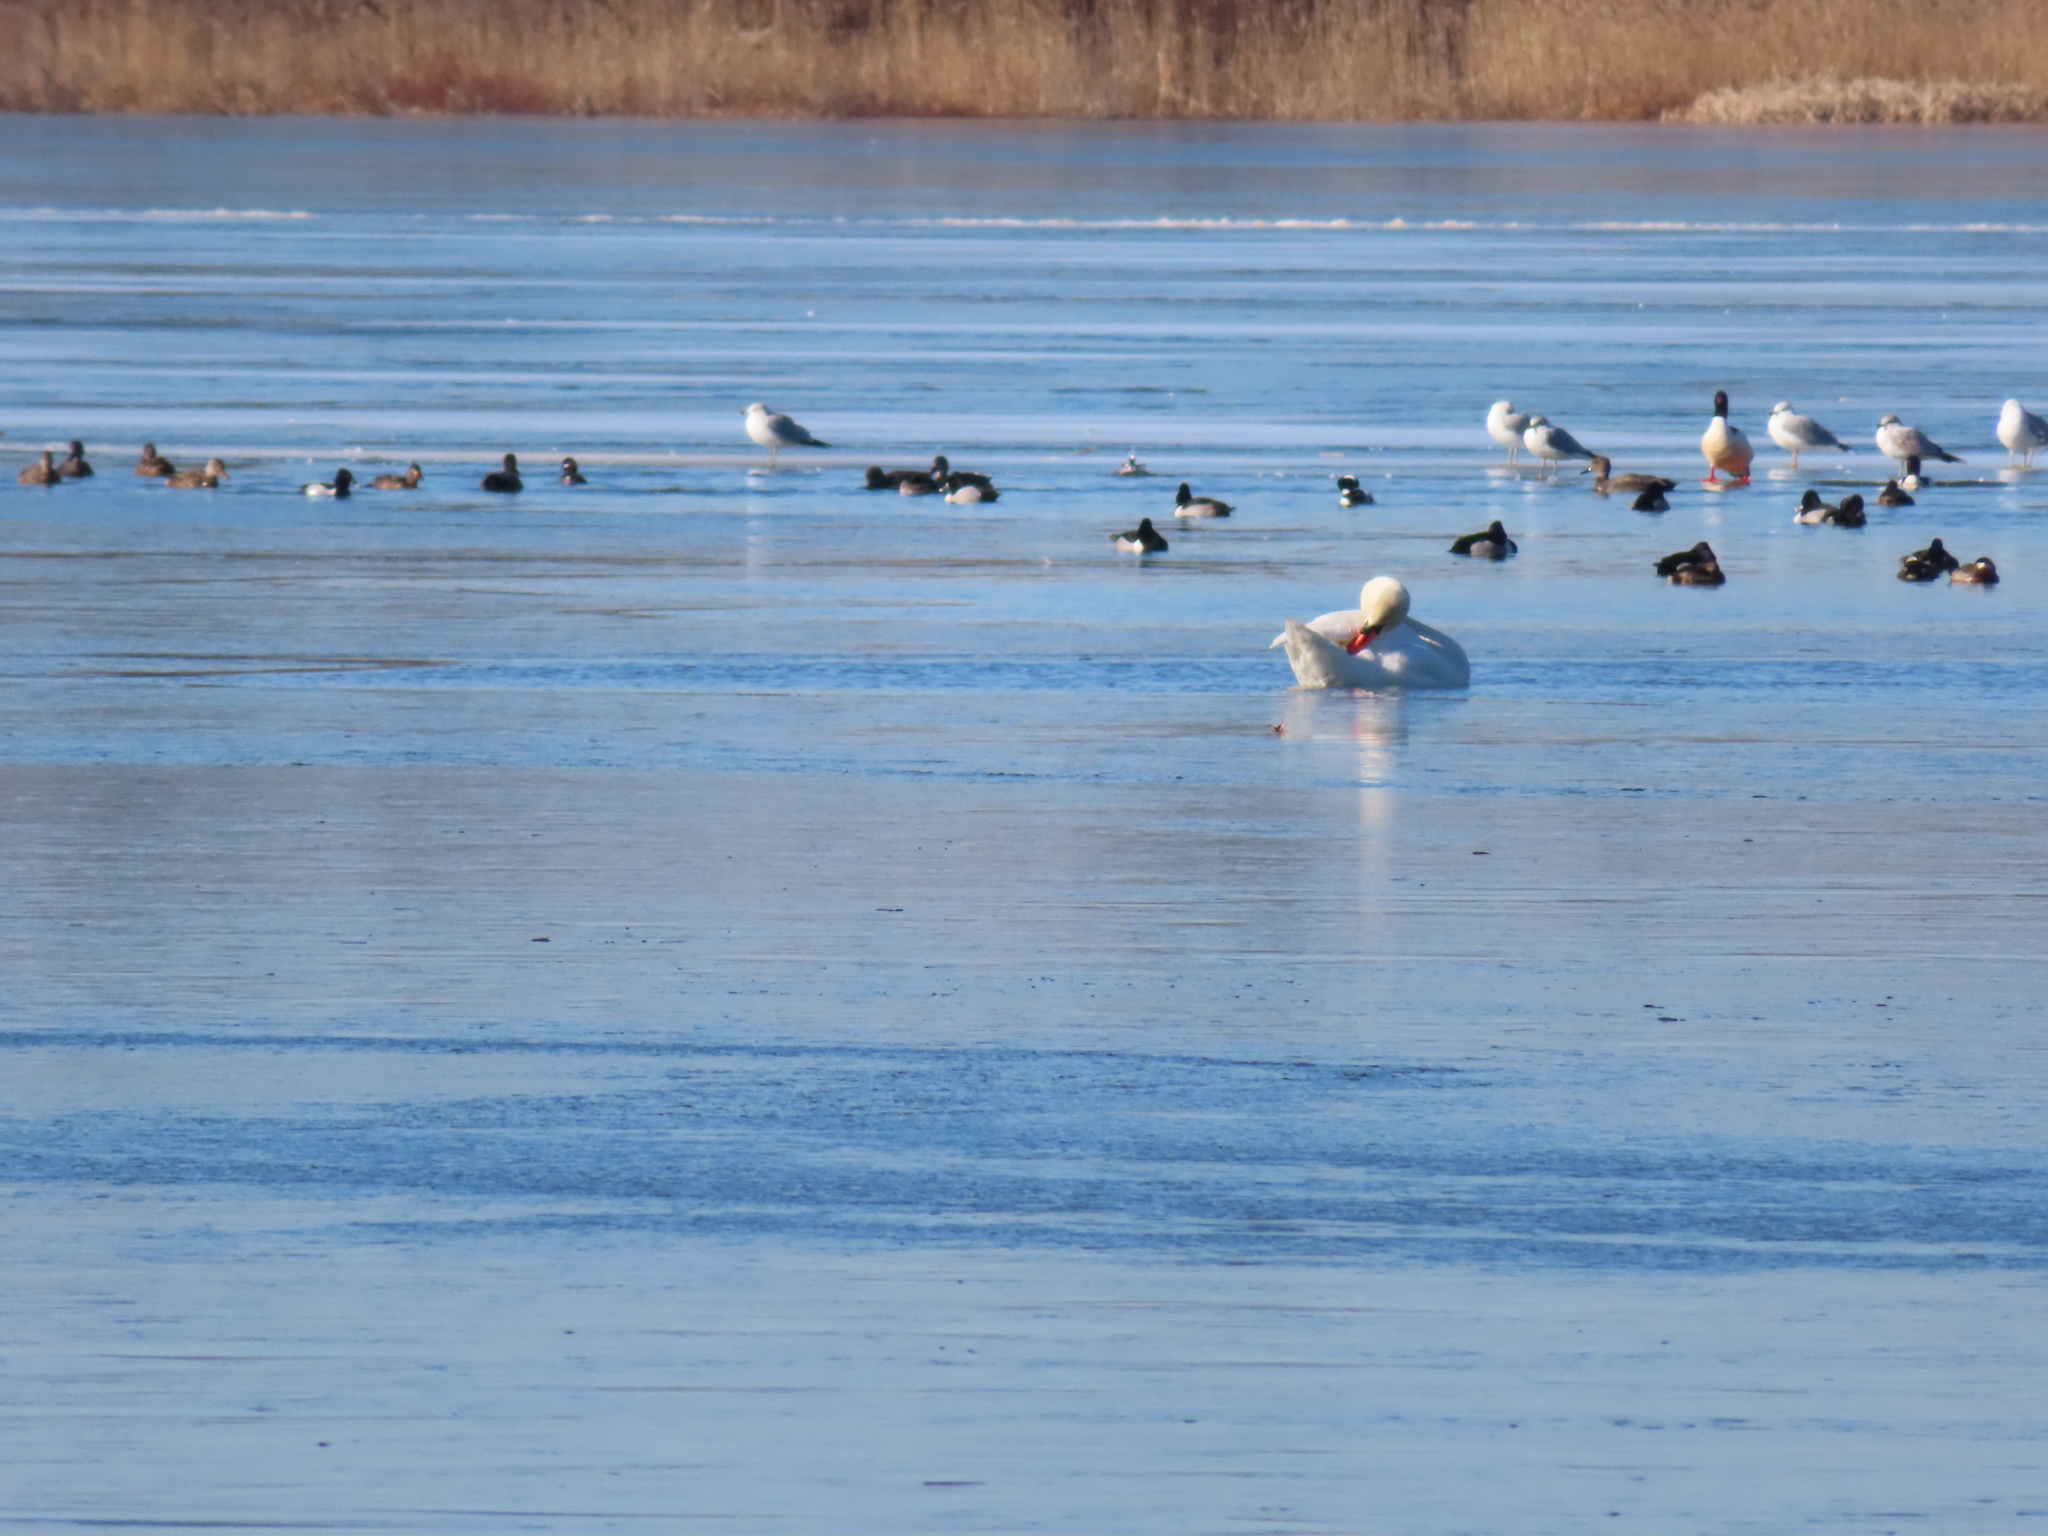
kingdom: Animalia
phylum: Chordata
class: Aves
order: Anseriformes
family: Anatidae
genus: Aythya
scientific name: Aythya collaris
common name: Ring-necked duck
